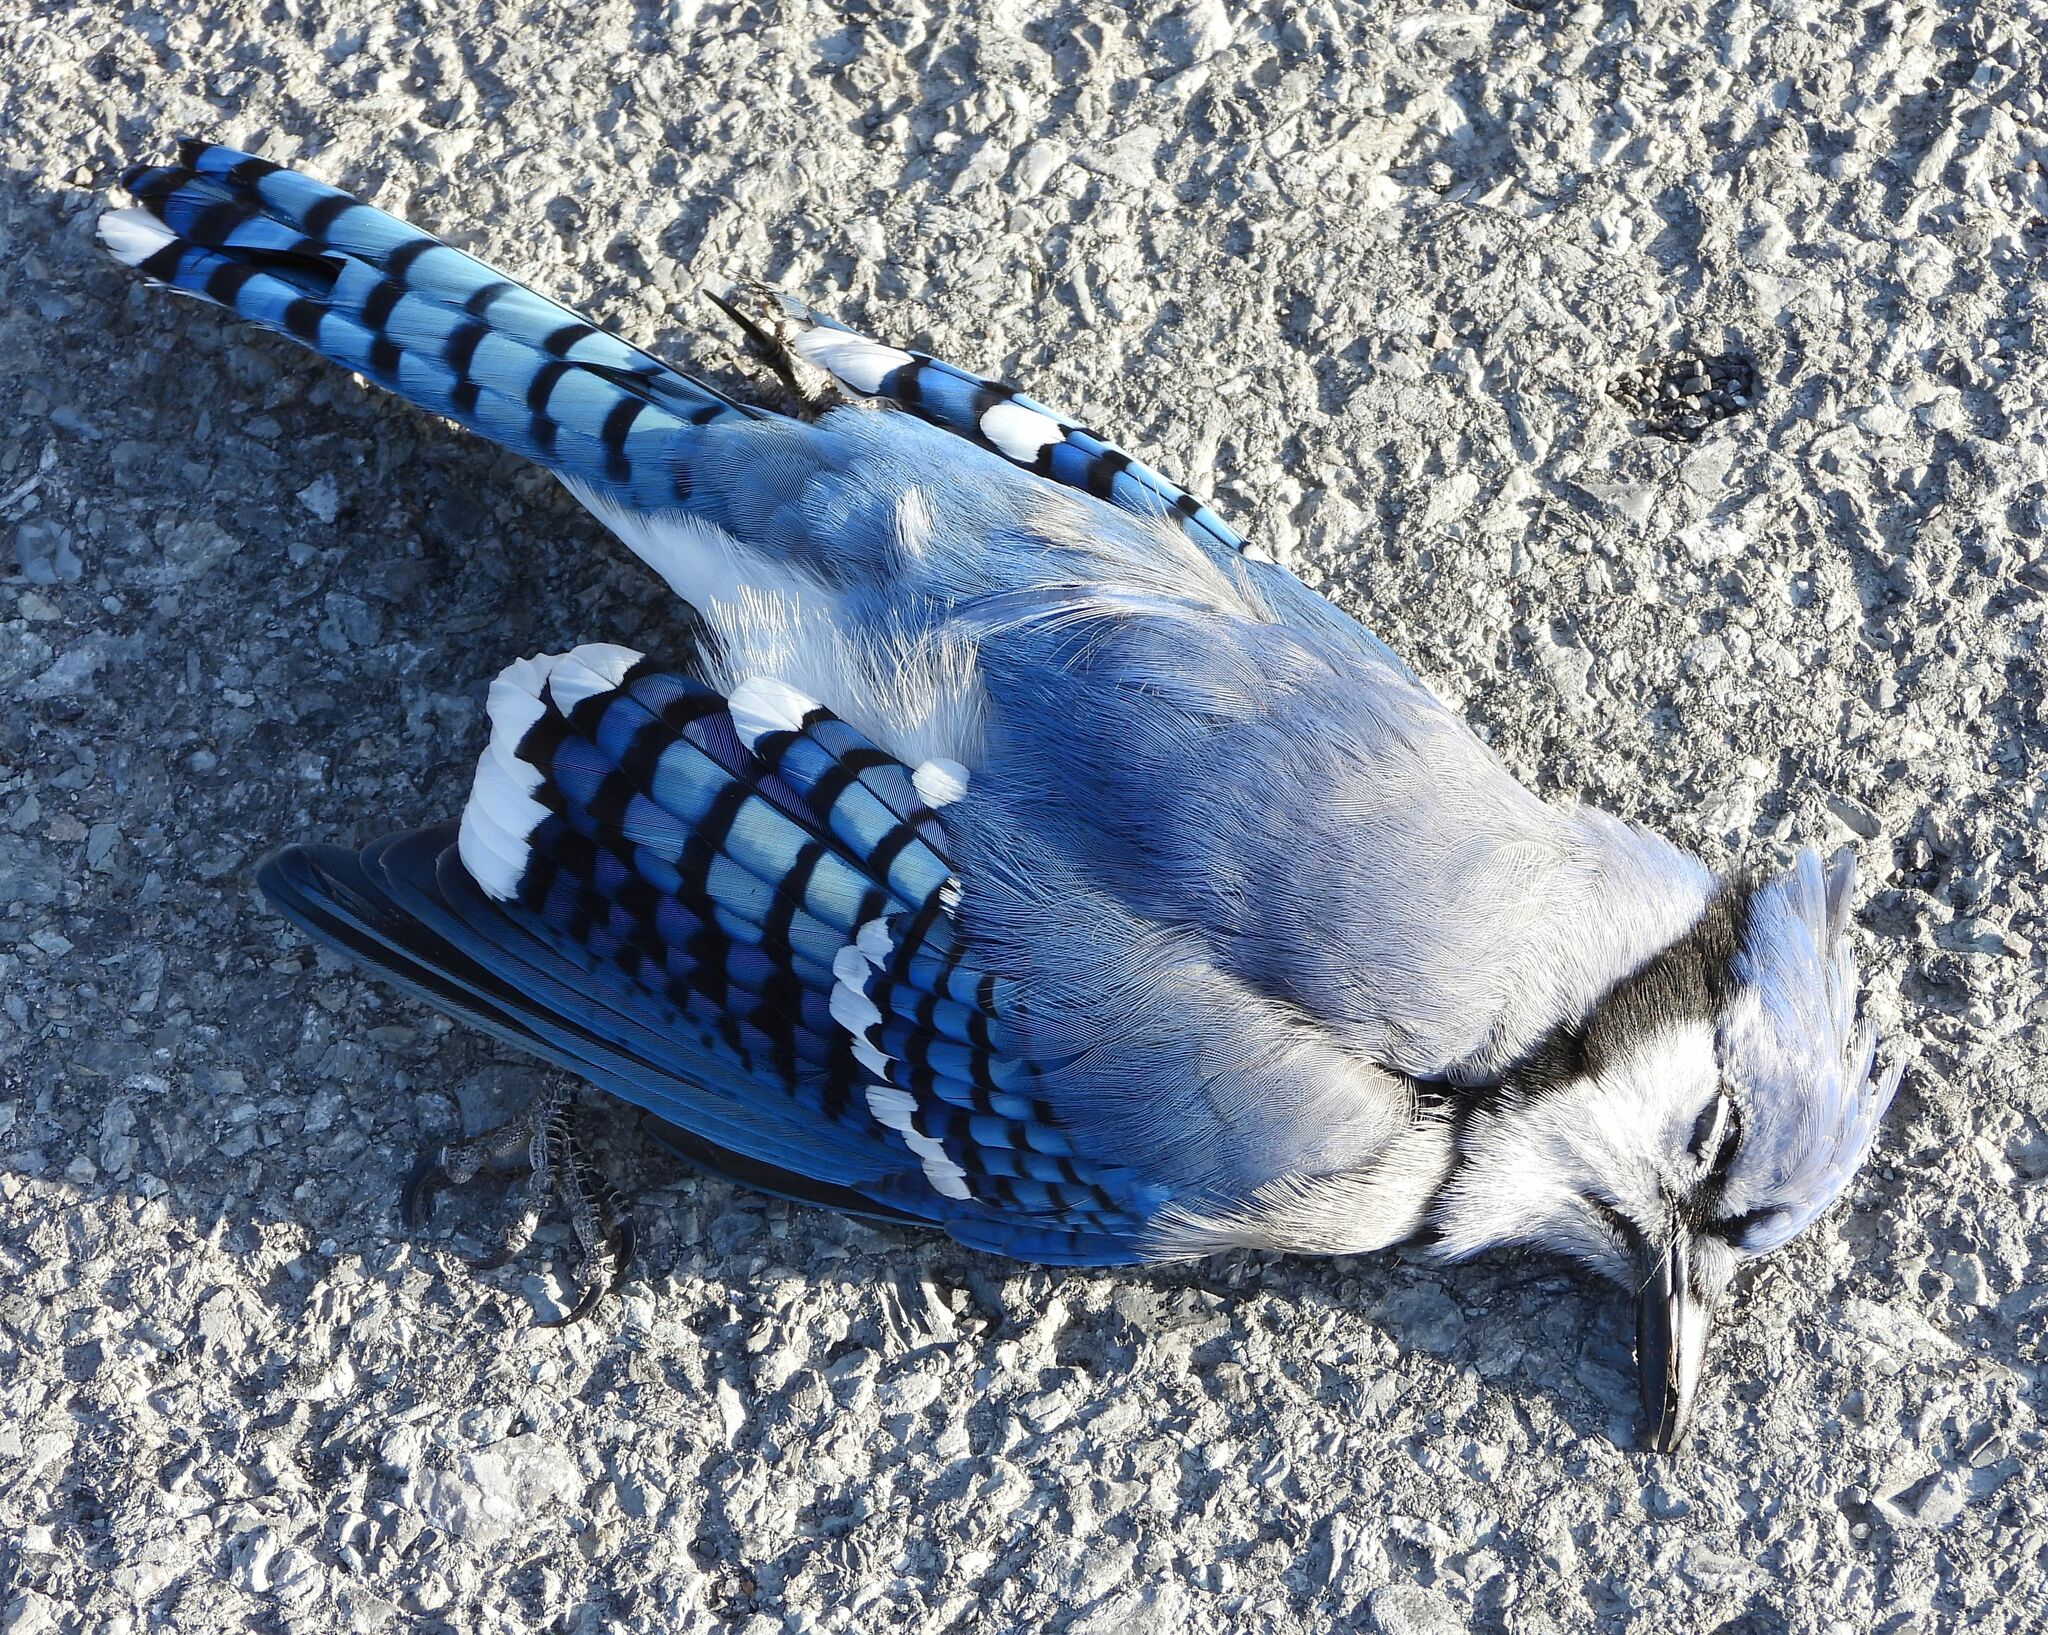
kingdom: Animalia
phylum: Chordata
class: Aves
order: Passeriformes
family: Corvidae
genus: Cyanocitta
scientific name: Cyanocitta cristata
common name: Blue jay
